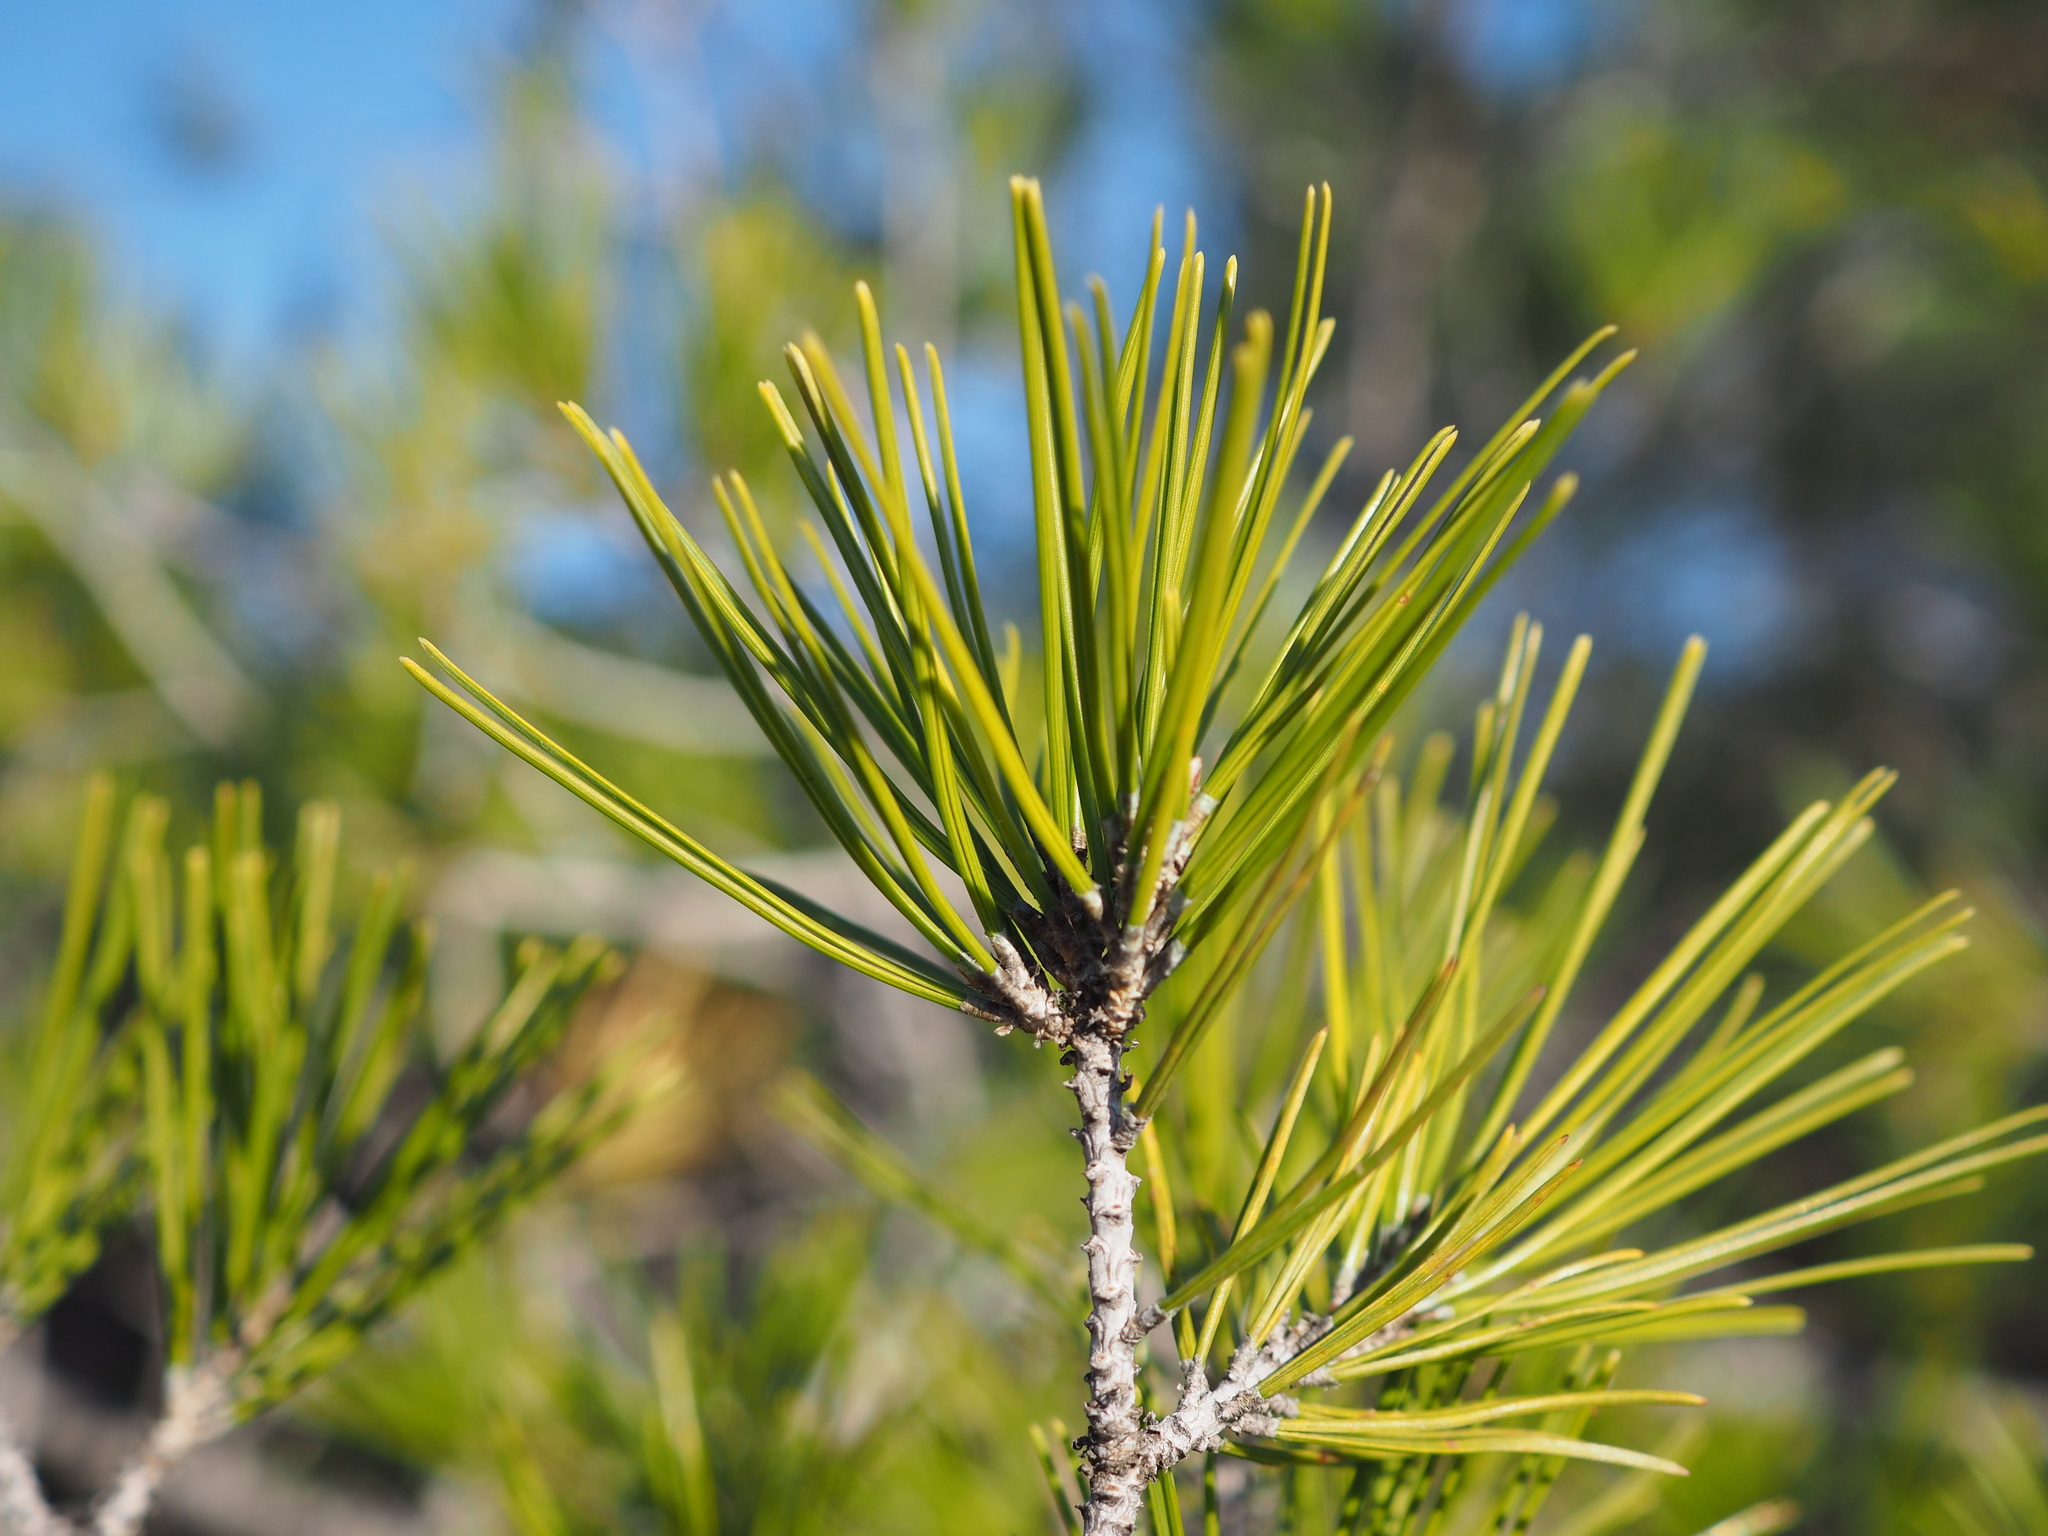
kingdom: Plantae
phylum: Tracheophyta
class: Pinopsida
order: Pinales
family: Pinaceae
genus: Pinus
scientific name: Pinus halepensis
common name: Aleppo pine
